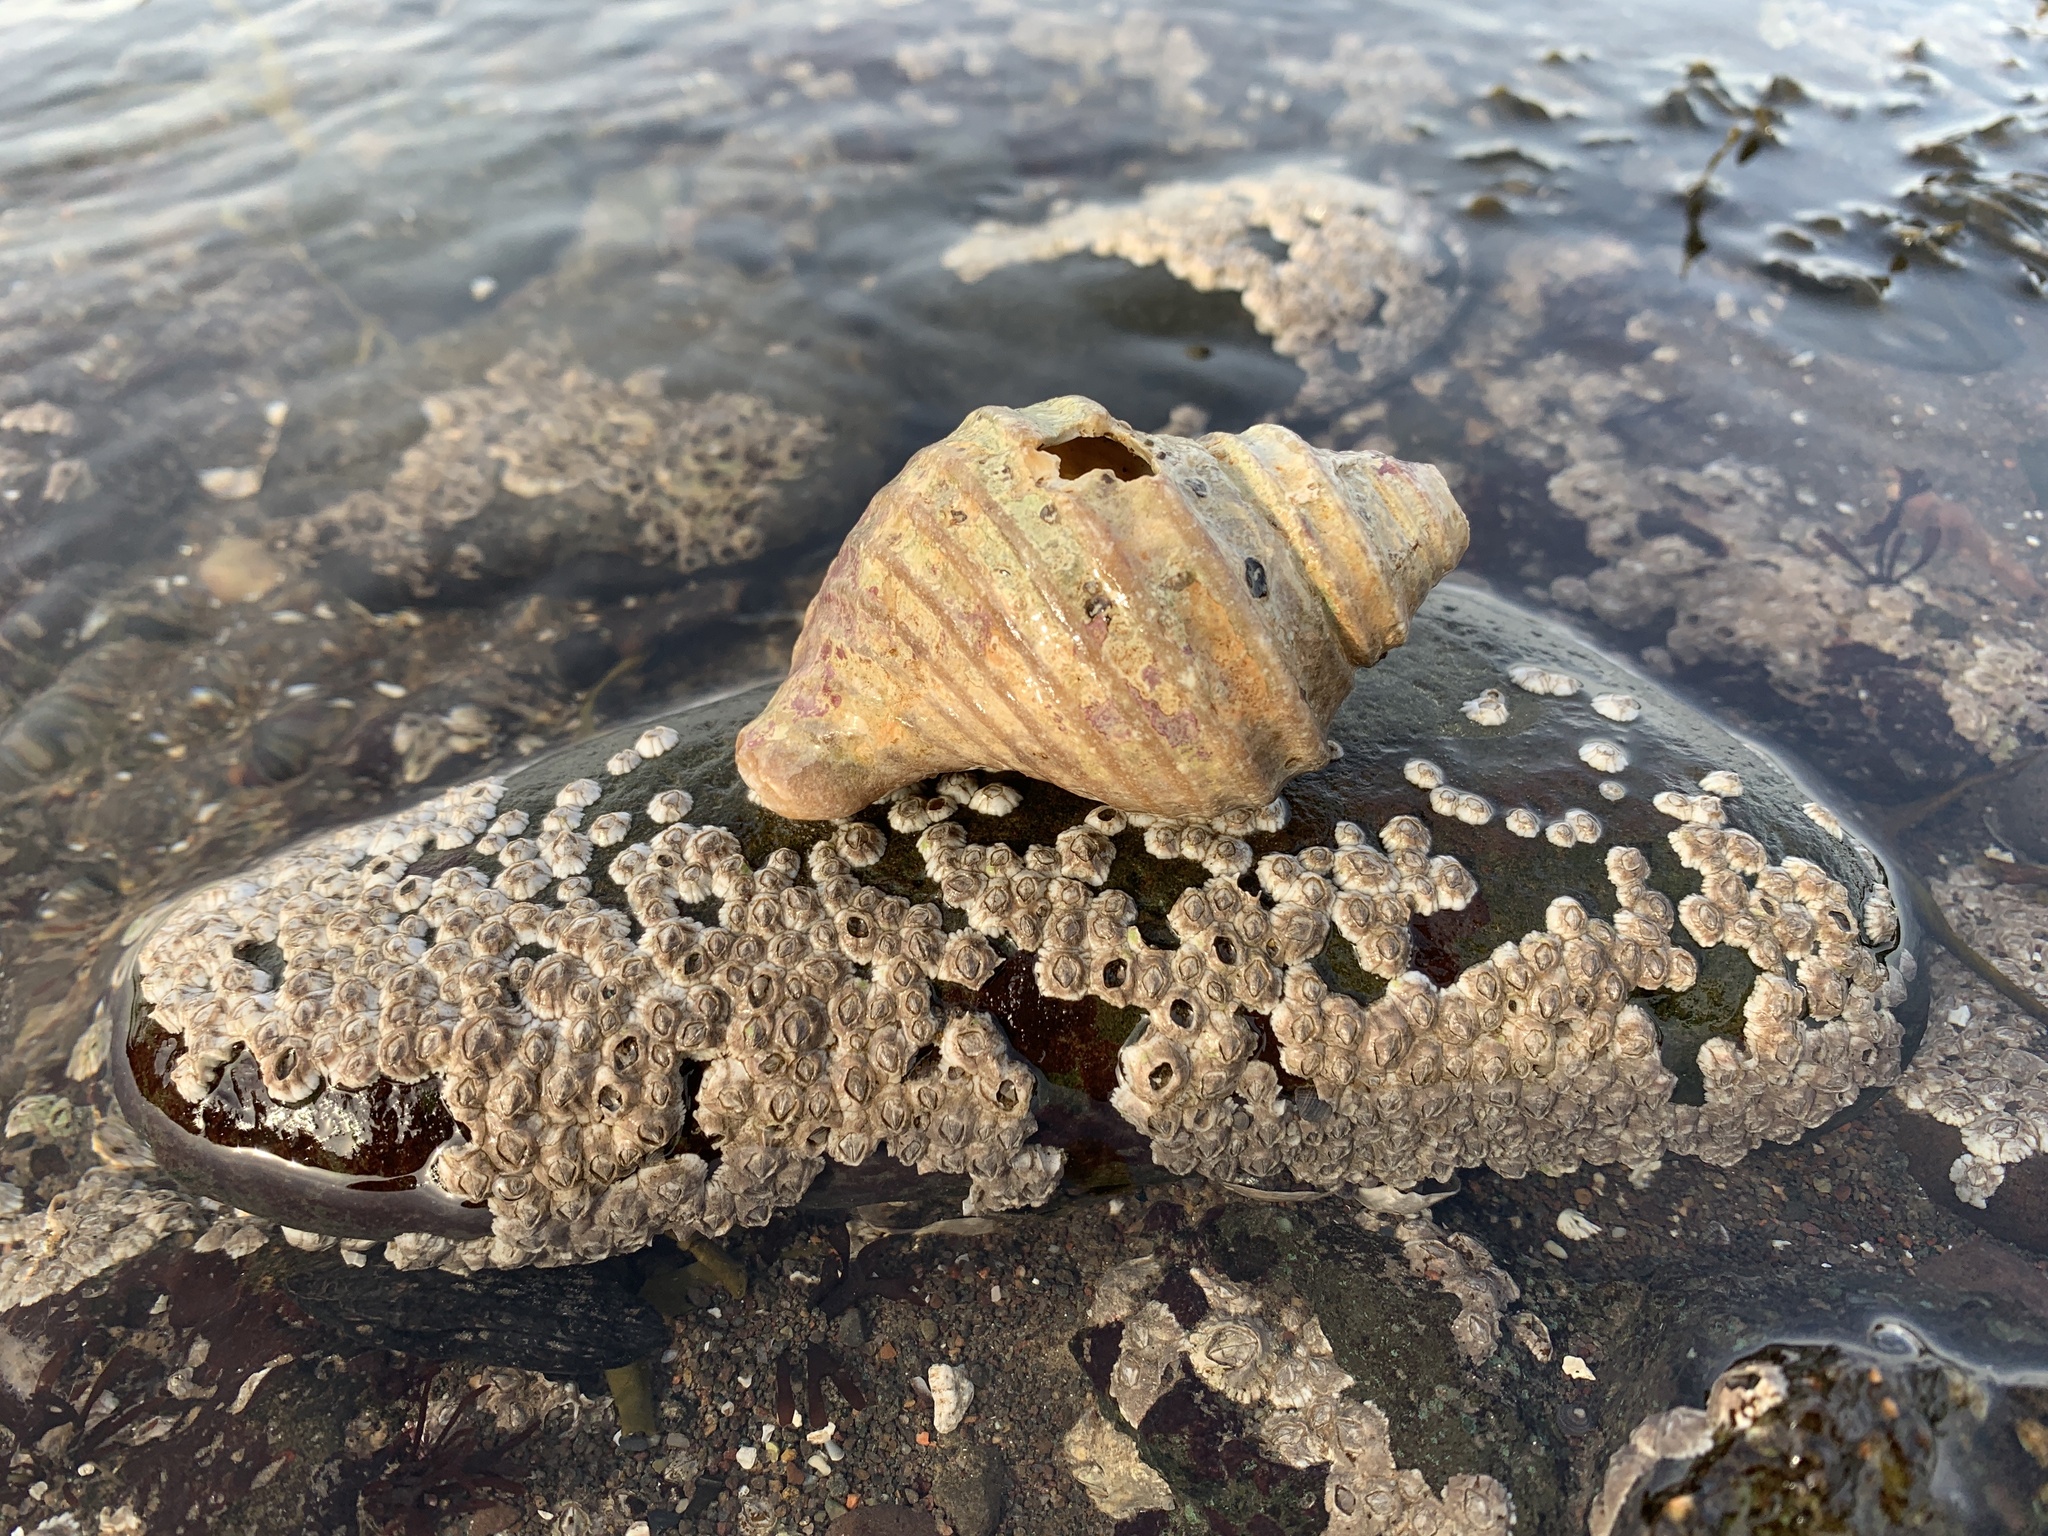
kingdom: Animalia
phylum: Mollusca
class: Gastropoda
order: Neogastropoda
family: Buccinidae
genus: Neptunea
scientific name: Neptunea decemcostata
